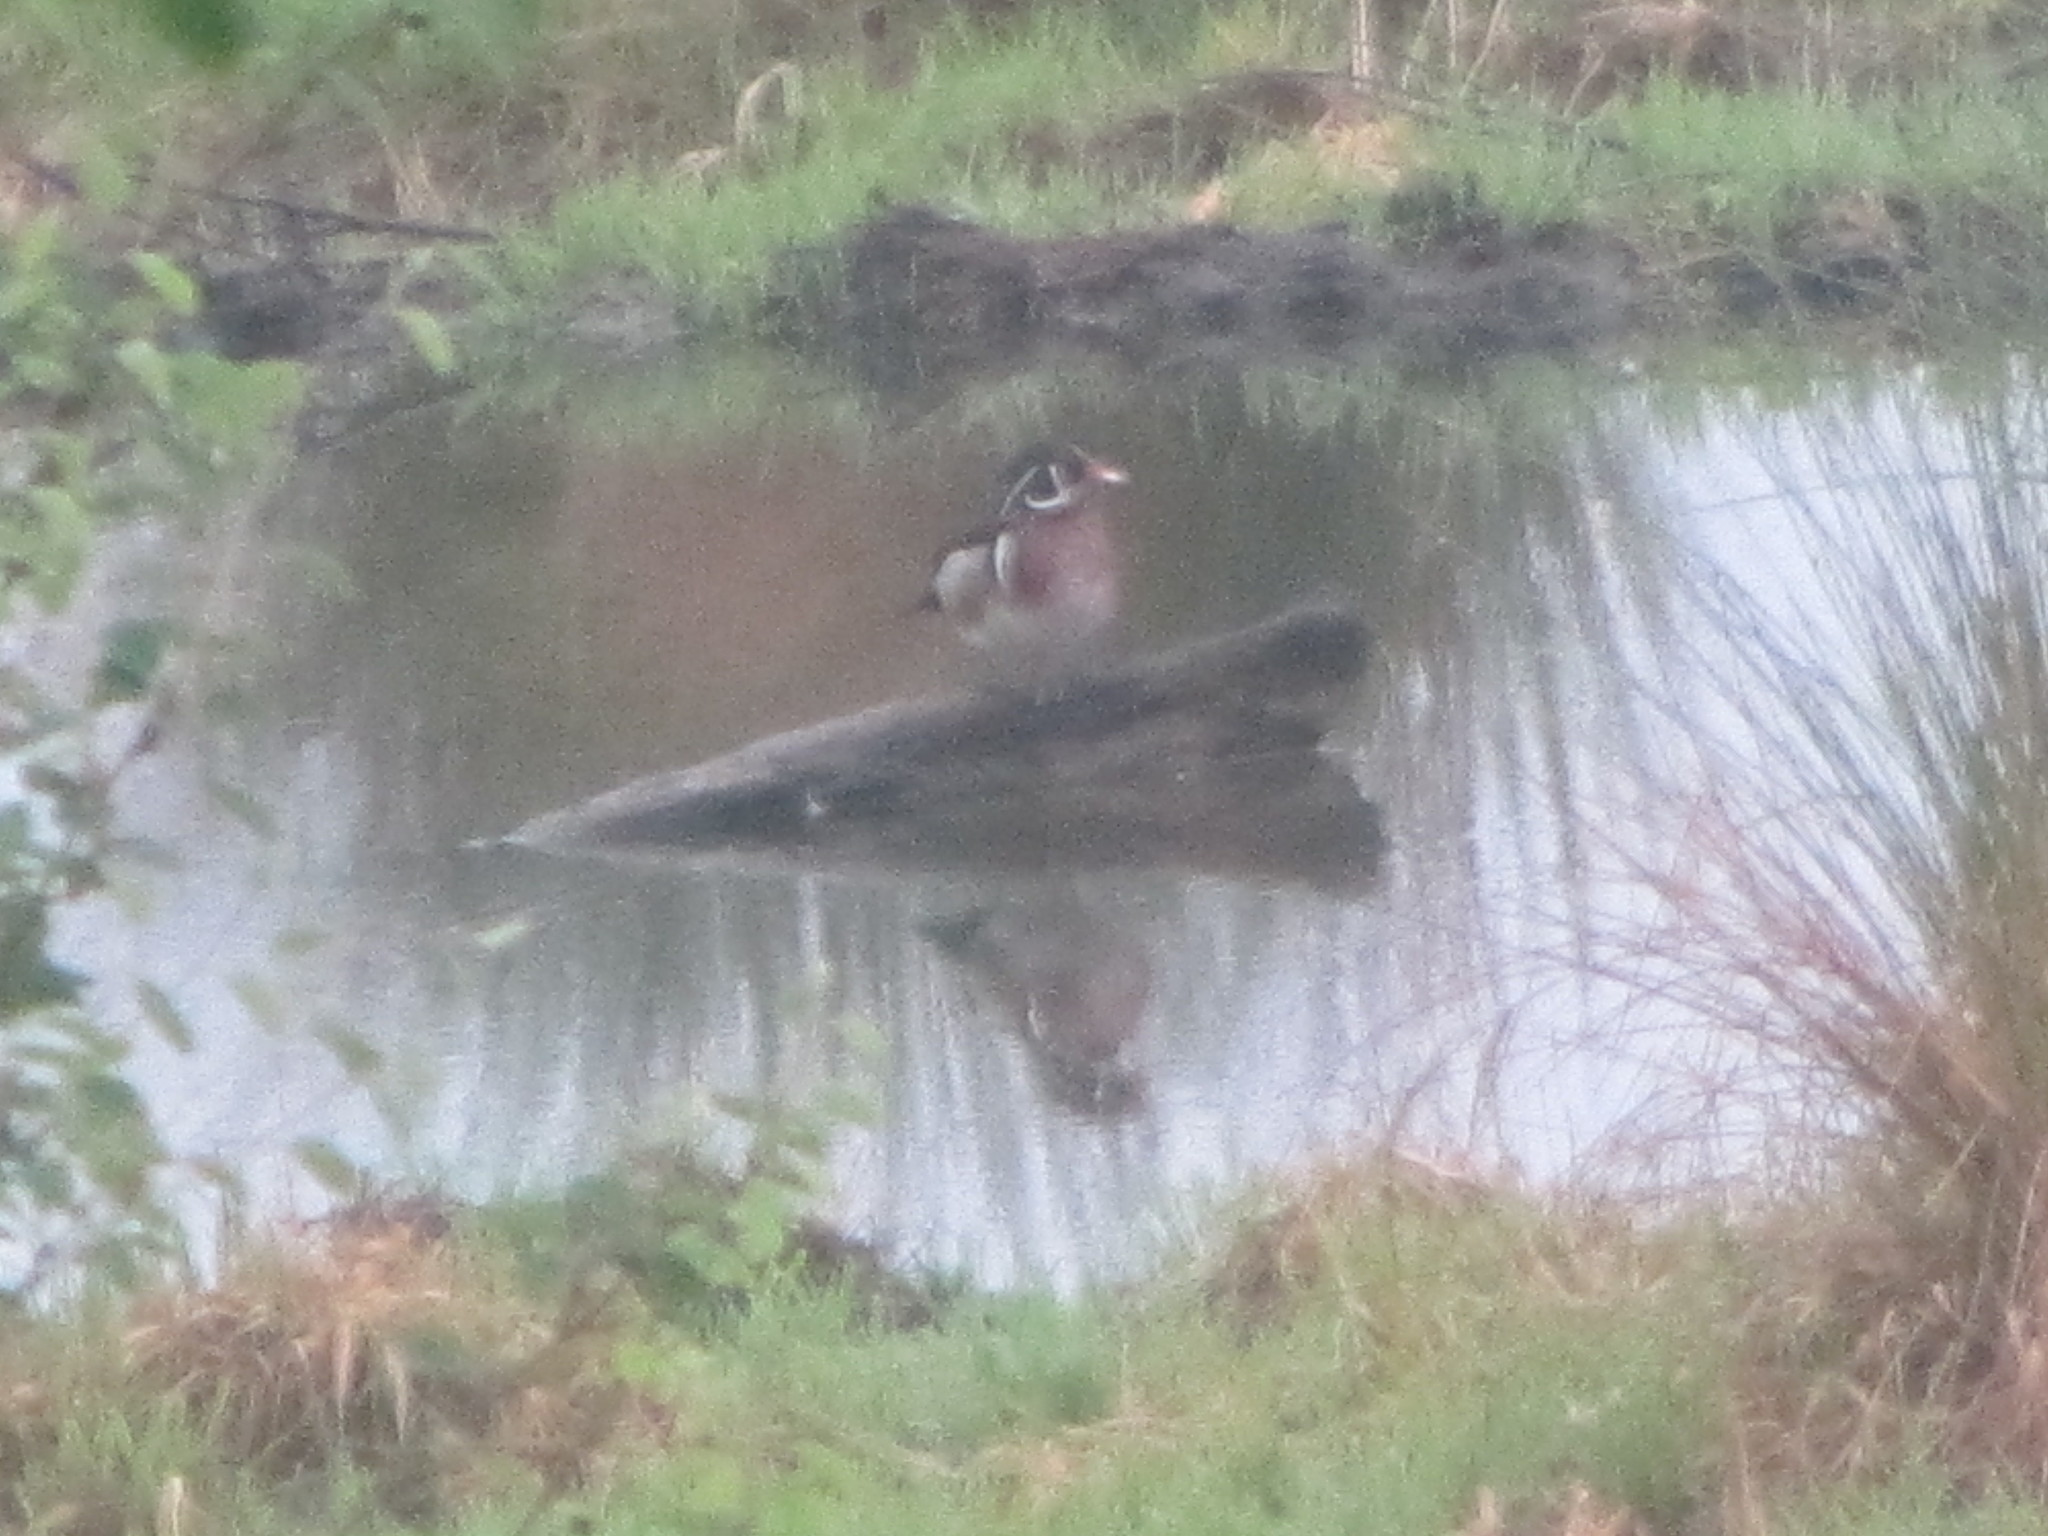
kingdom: Animalia
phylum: Chordata
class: Aves
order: Anseriformes
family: Anatidae
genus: Aix
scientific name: Aix sponsa
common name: Wood duck
